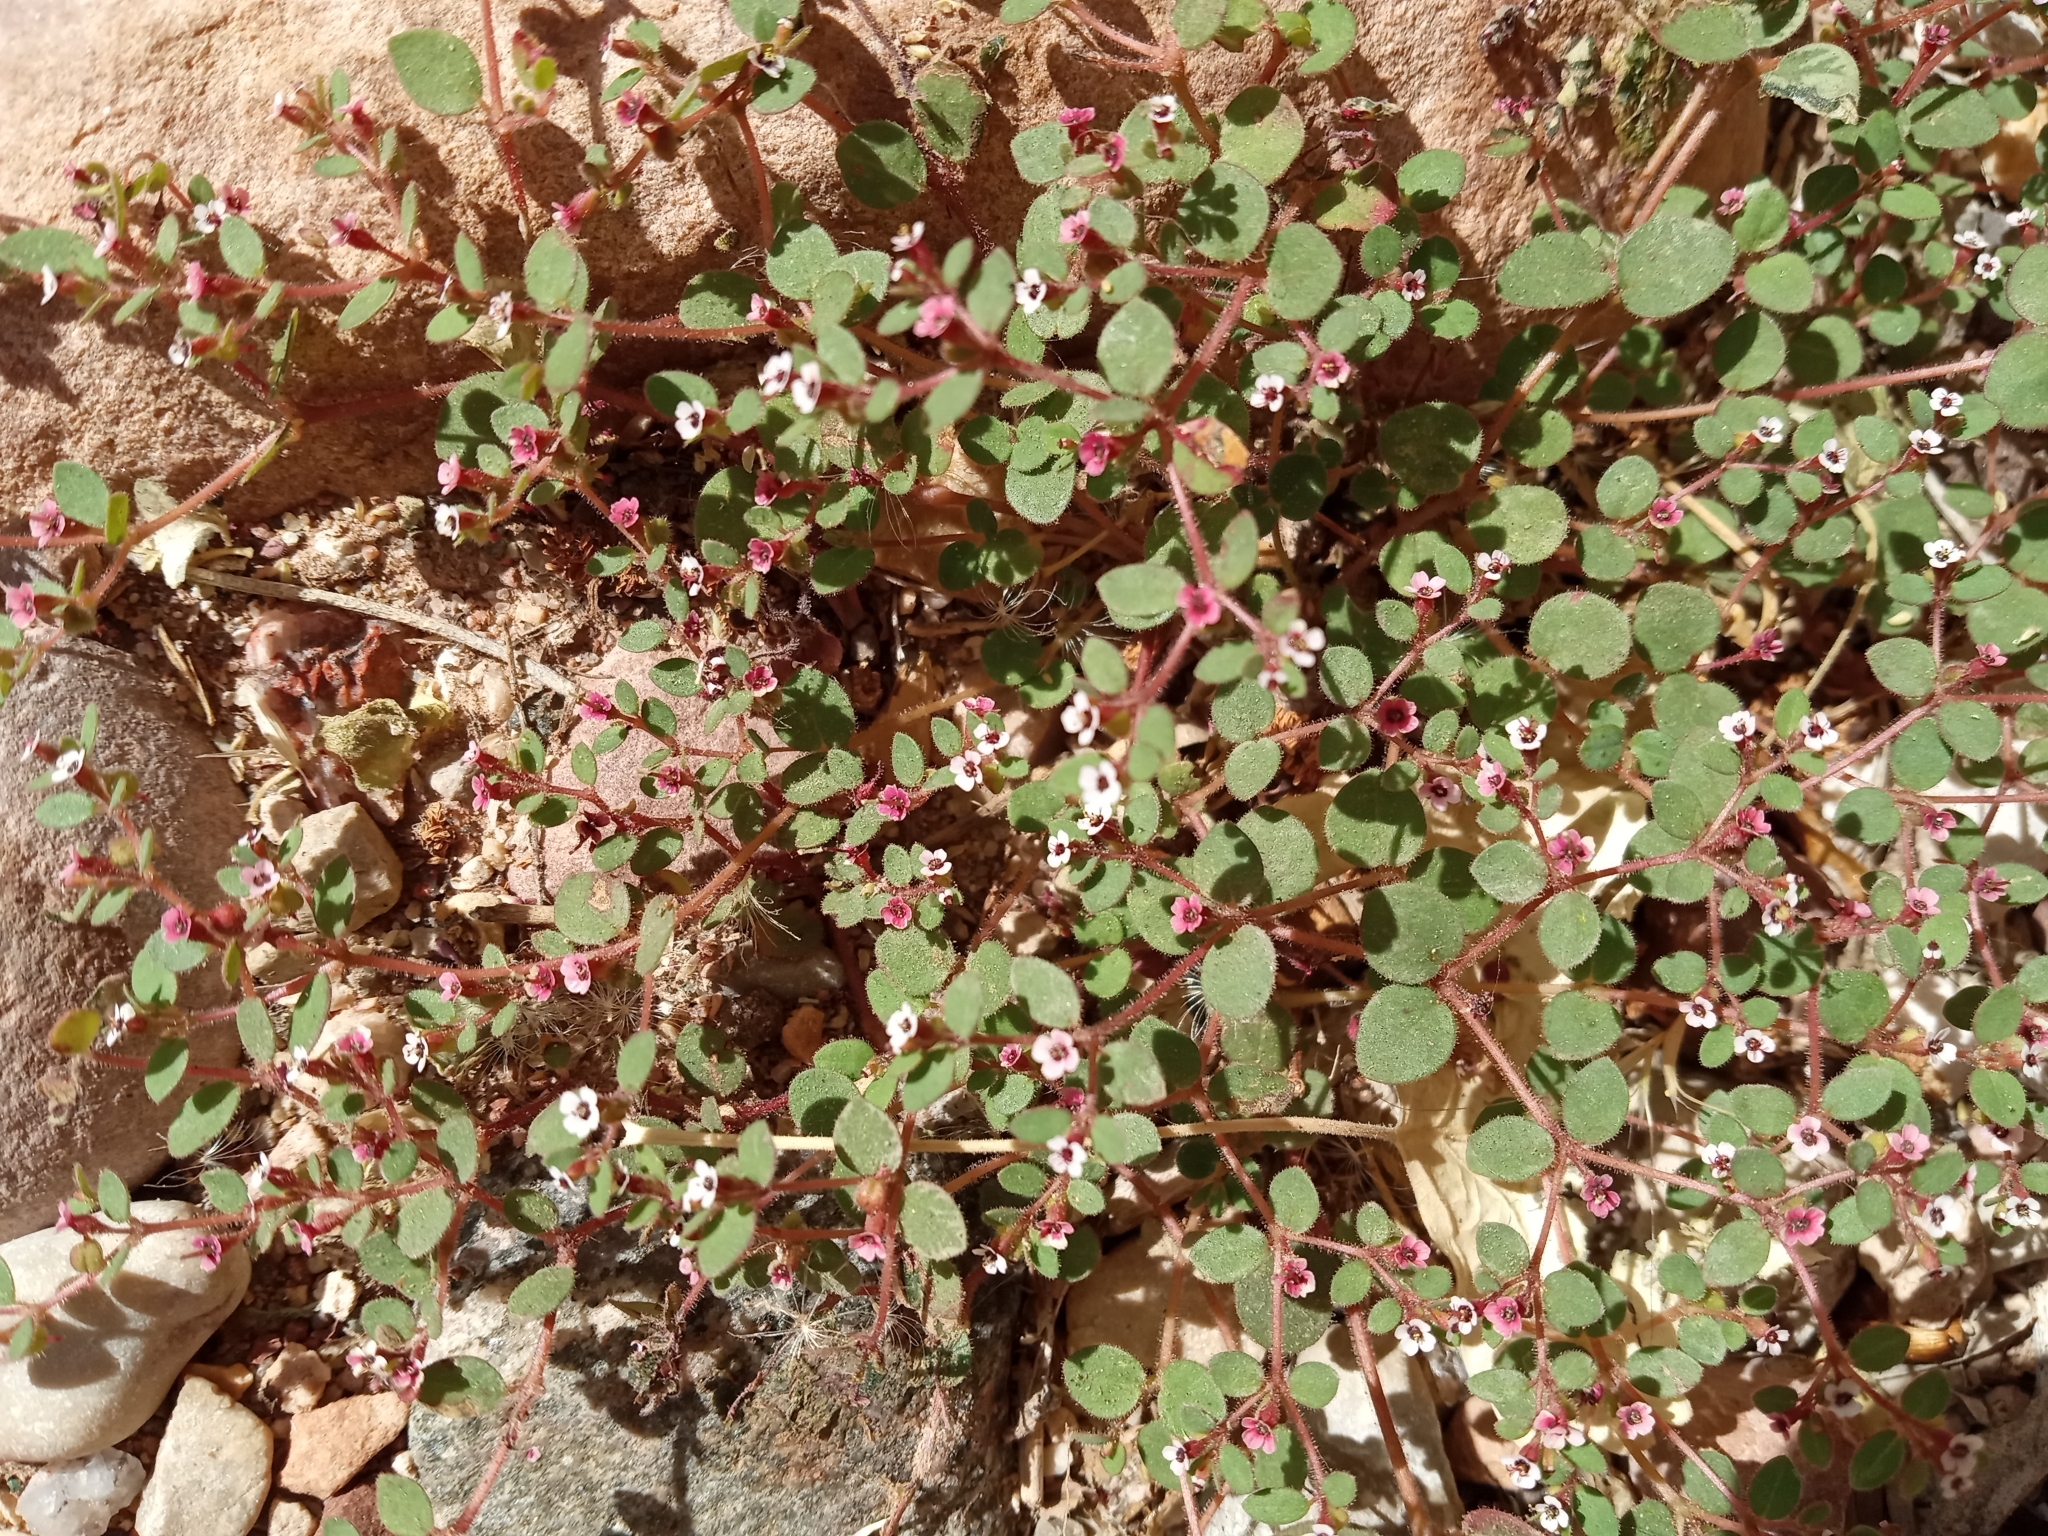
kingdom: Plantae
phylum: Tracheophyta
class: Magnoliopsida
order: Malpighiales
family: Euphorbiaceae
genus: Euphorbia
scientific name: Euphorbia arizonica
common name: Arizona spurge
